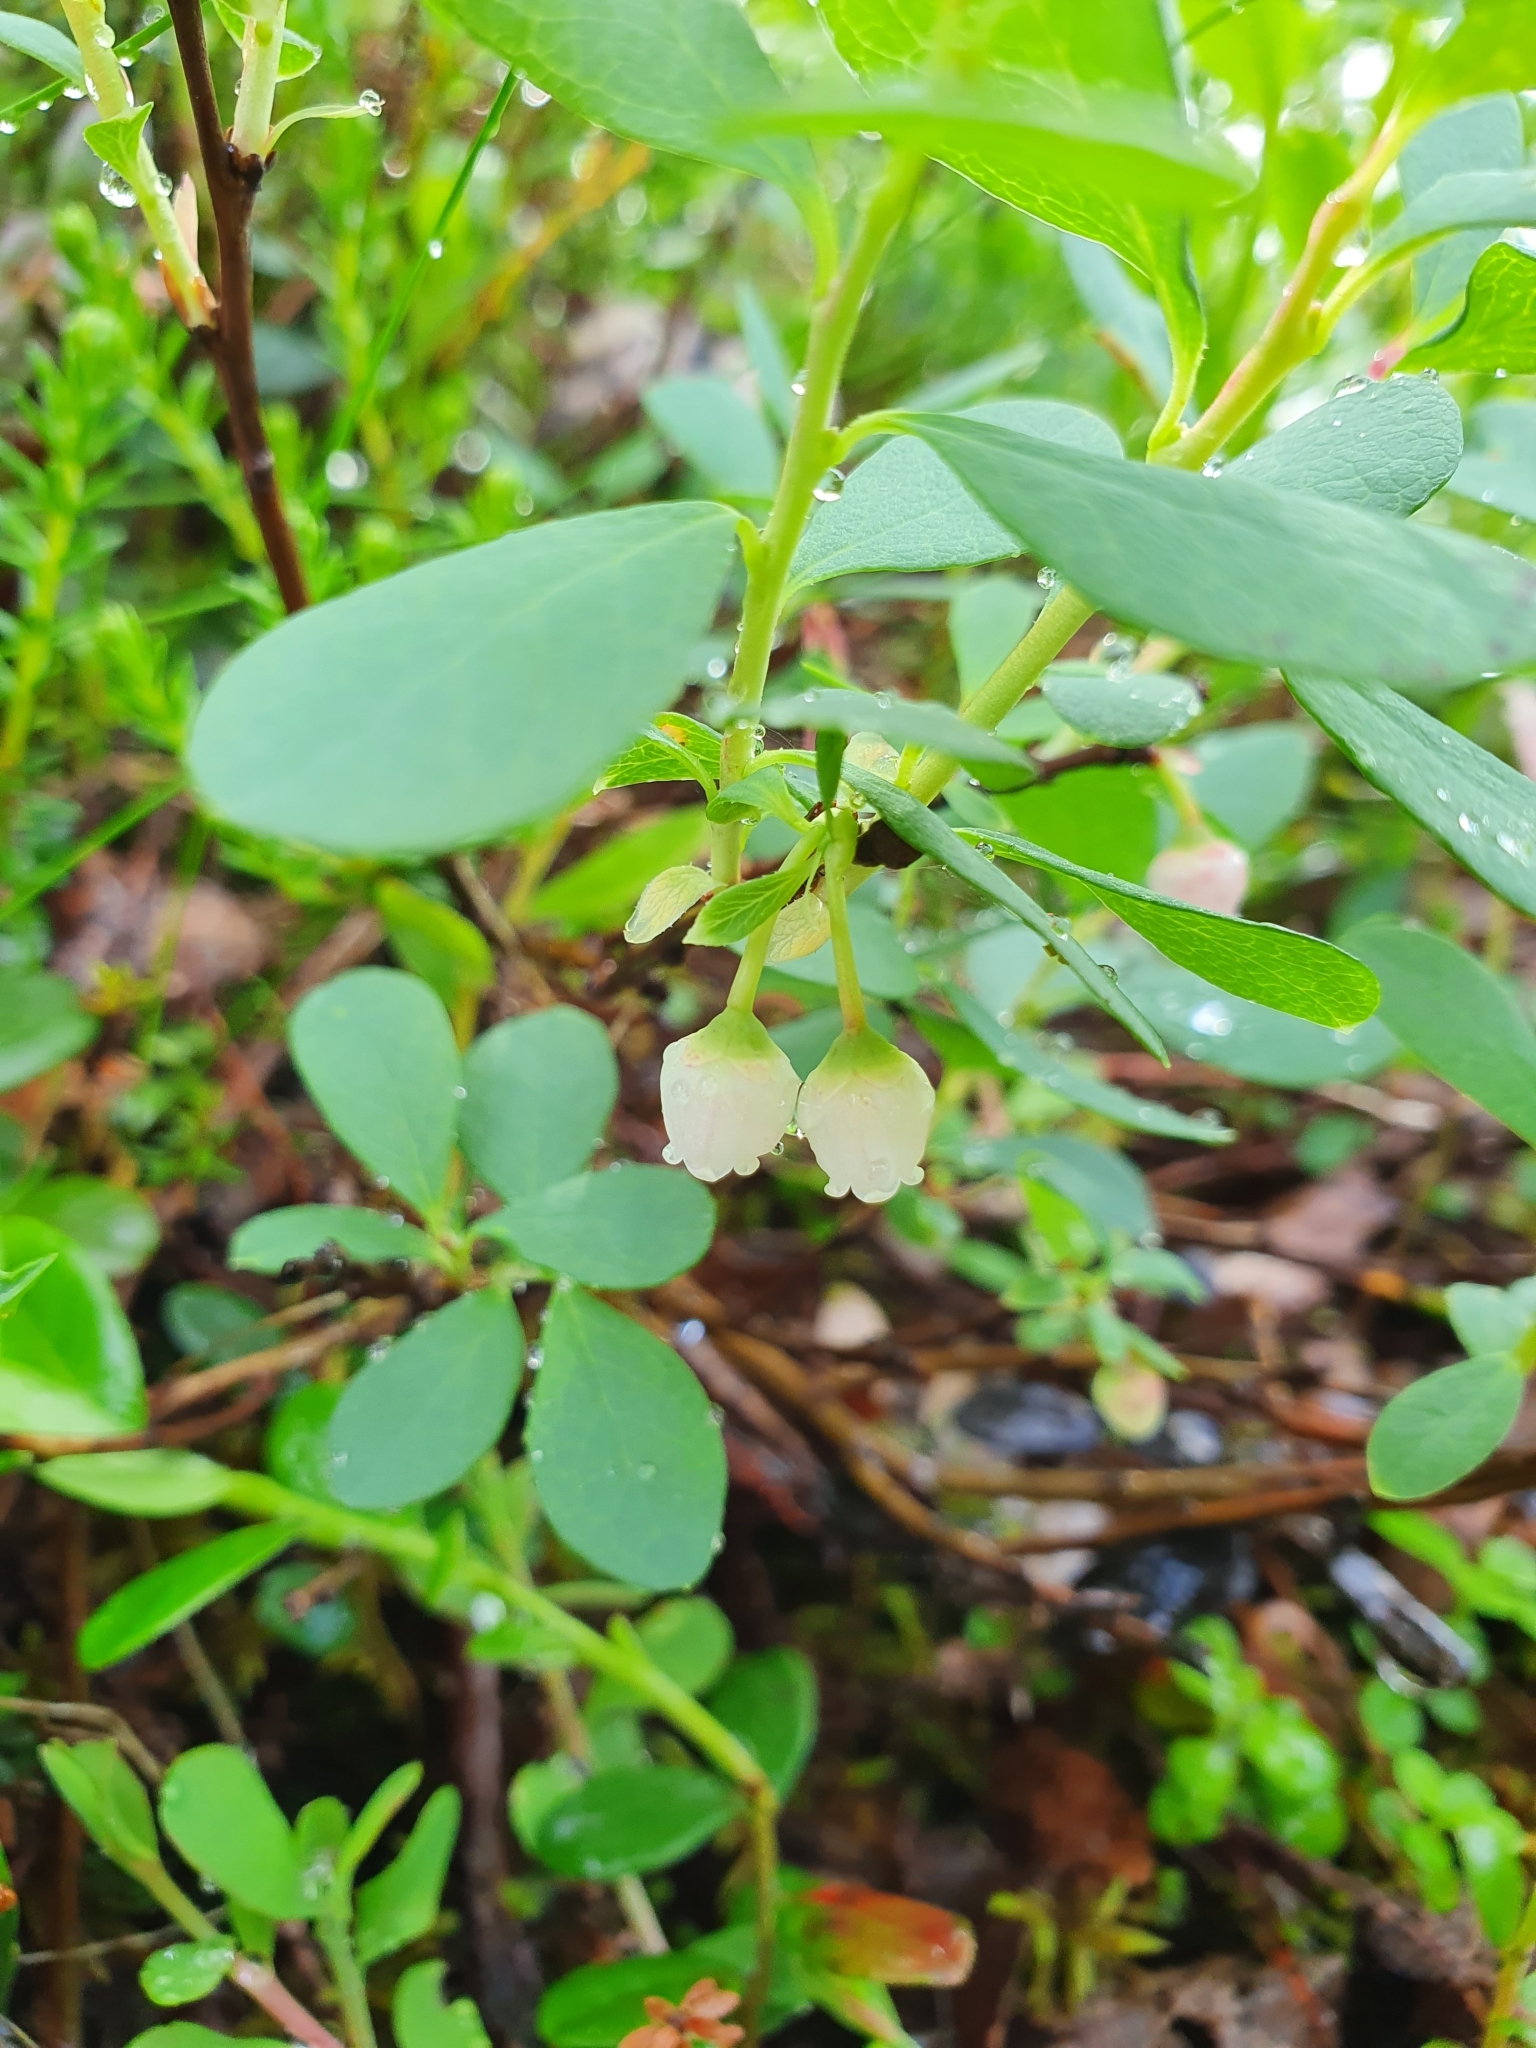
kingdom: Plantae
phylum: Tracheophyta
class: Magnoliopsida
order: Ericales
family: Ericaceae
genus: Vaccinium
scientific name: Vaccinium uliginosum
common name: Bog bilberry
